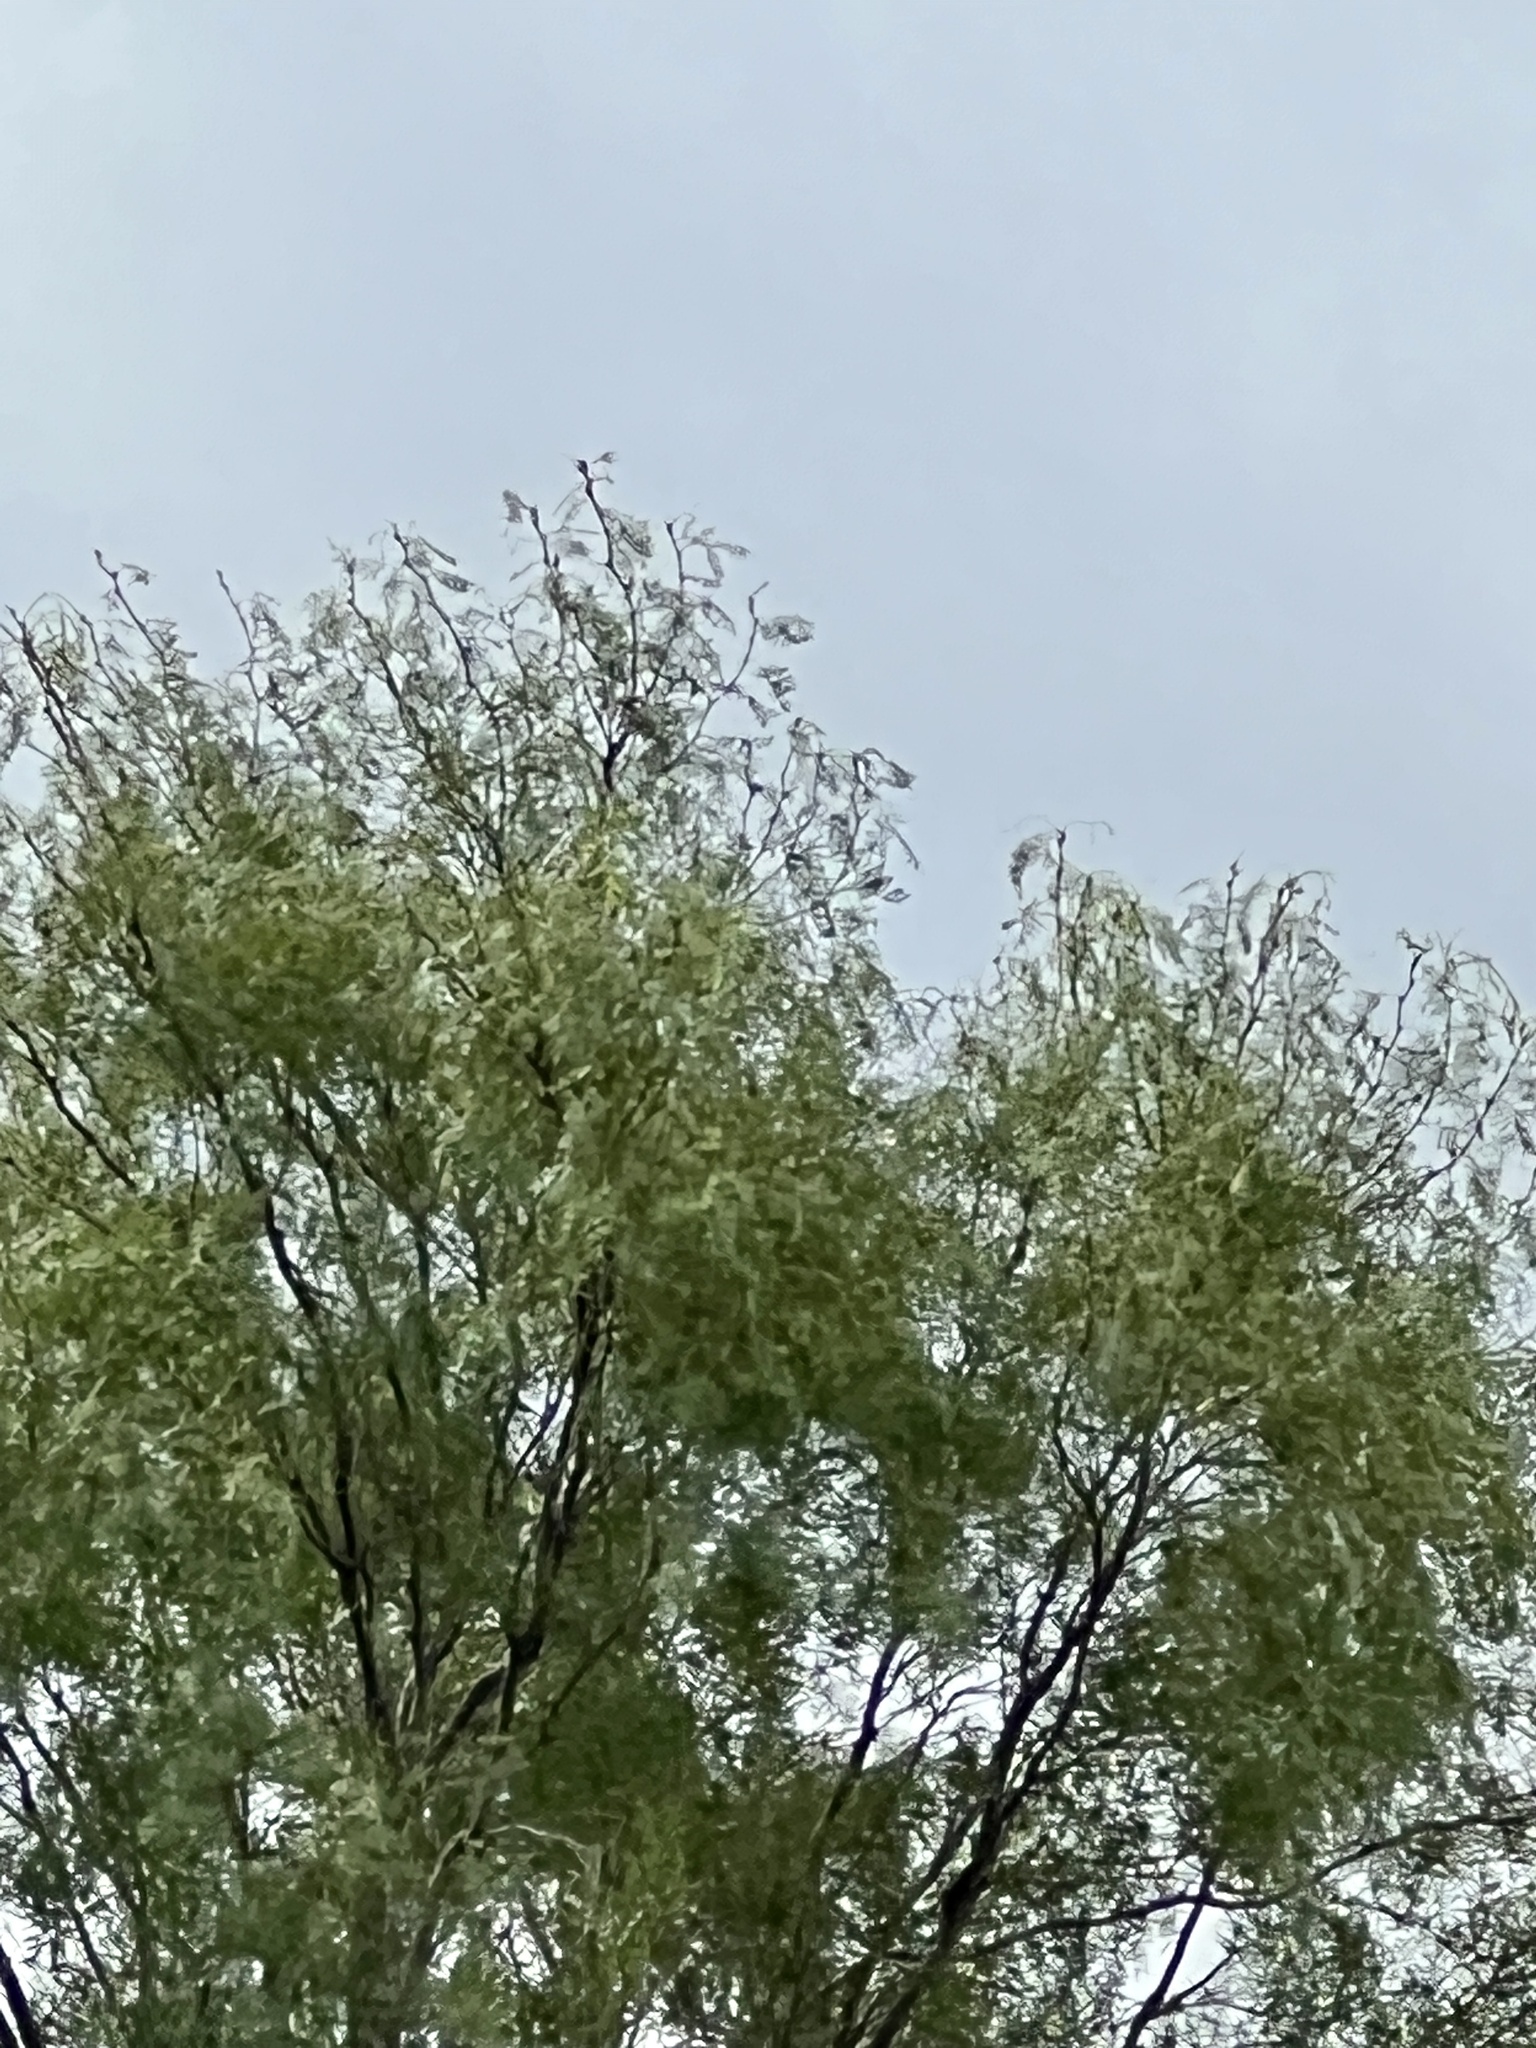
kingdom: Plantae
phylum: Tracheophyta
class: Magnoliopsida
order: Fabales
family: Fabaceae
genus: Prosopis
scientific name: Prosopis glandulosa
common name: Honey mesquite
